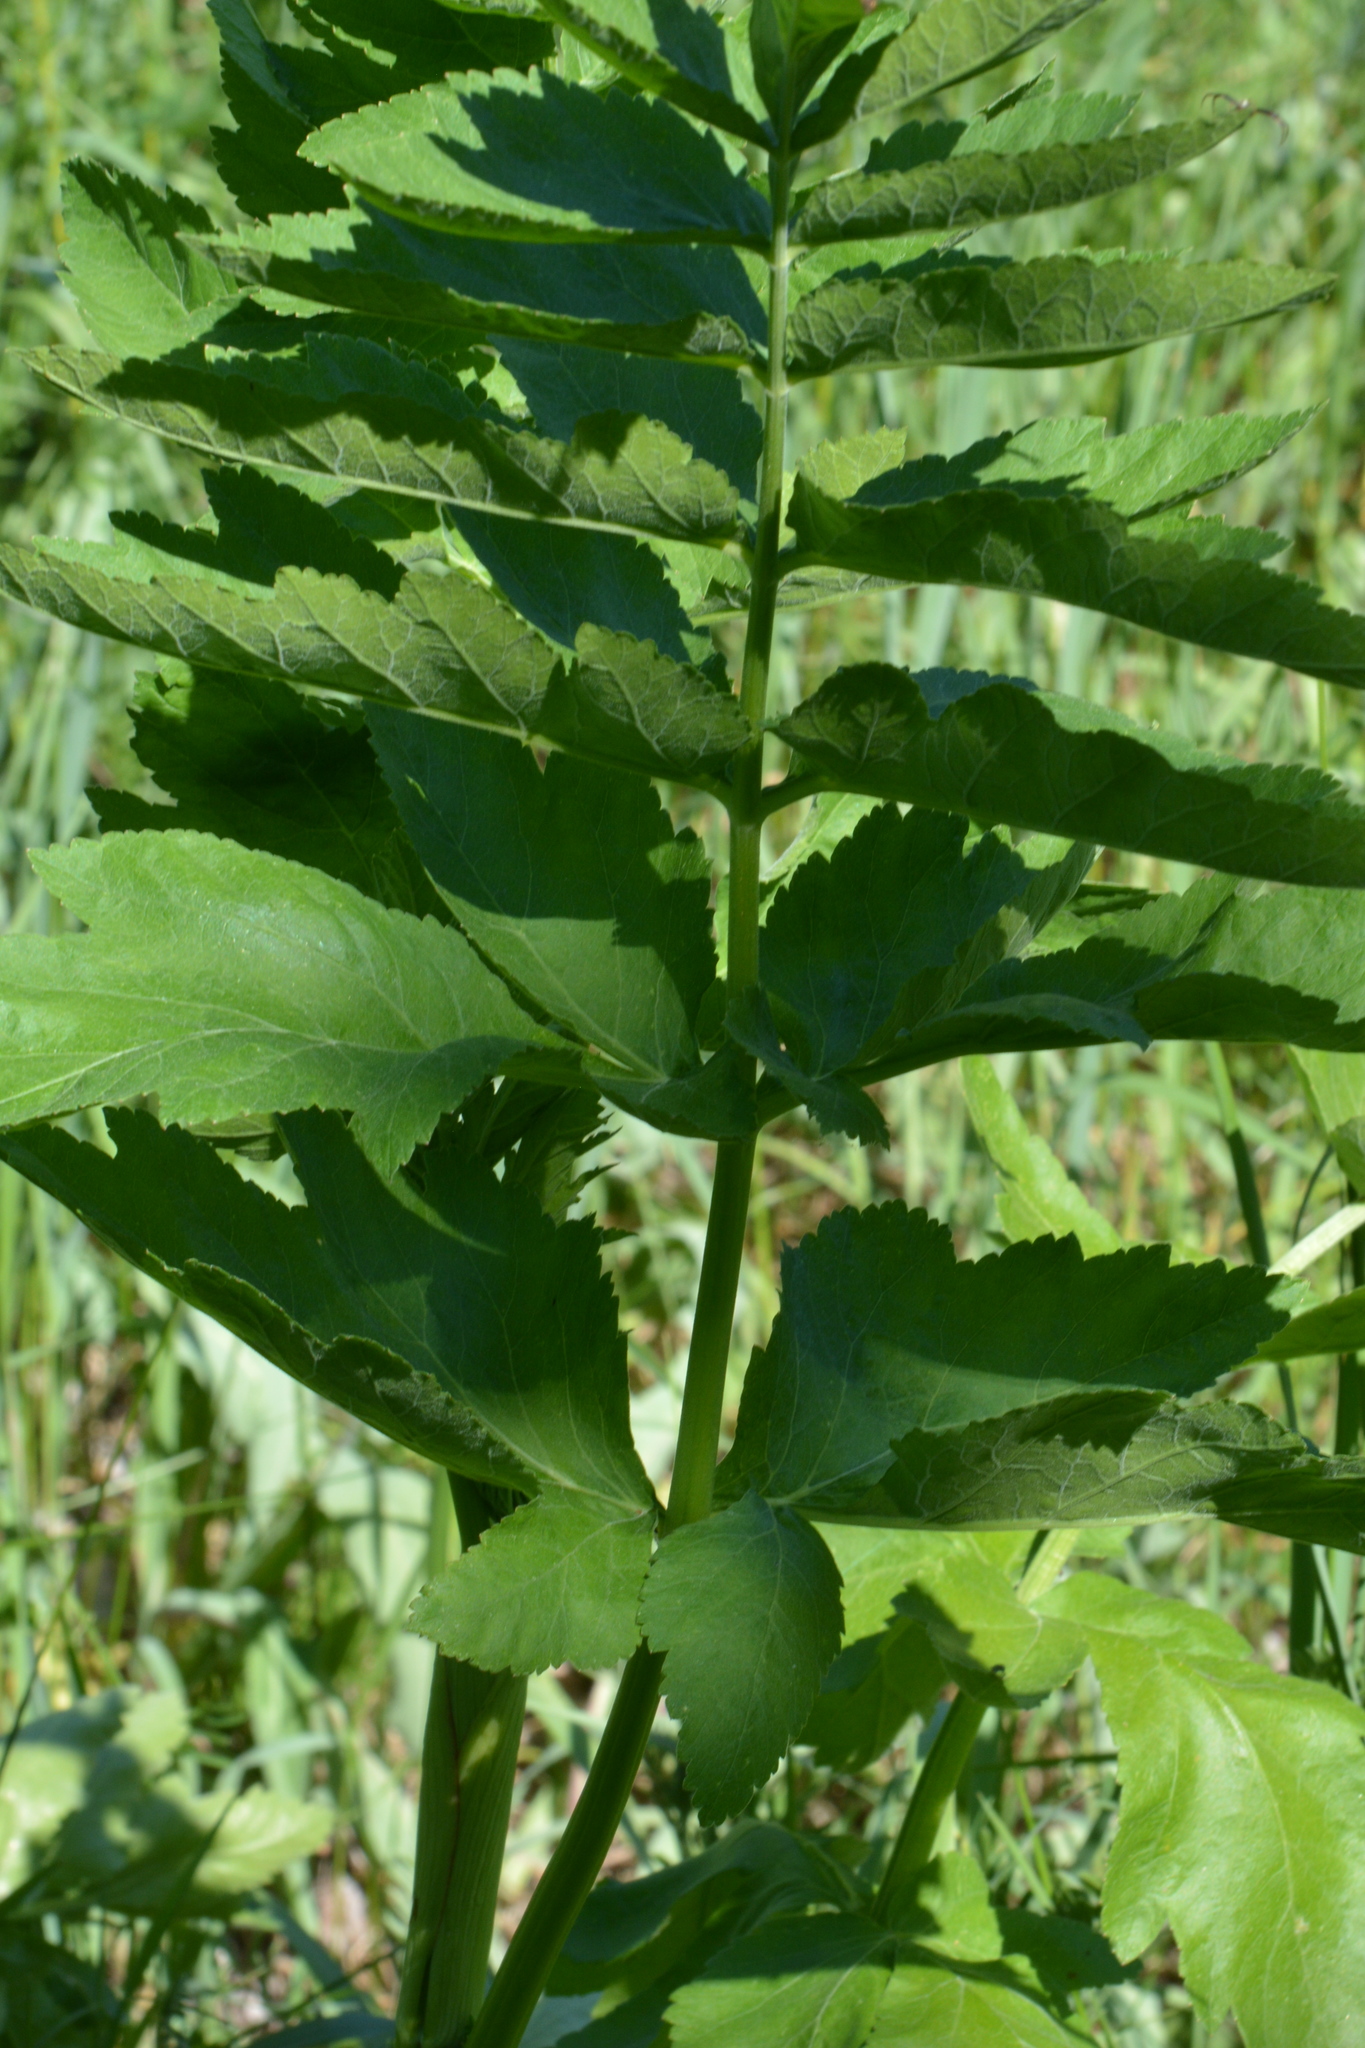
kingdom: Plantae
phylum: Tracheophyta
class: Magnoliopsida
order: Apiales
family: Apiaceae
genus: Pastinaca
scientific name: Pastinaca sativa
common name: Wild parsnip
